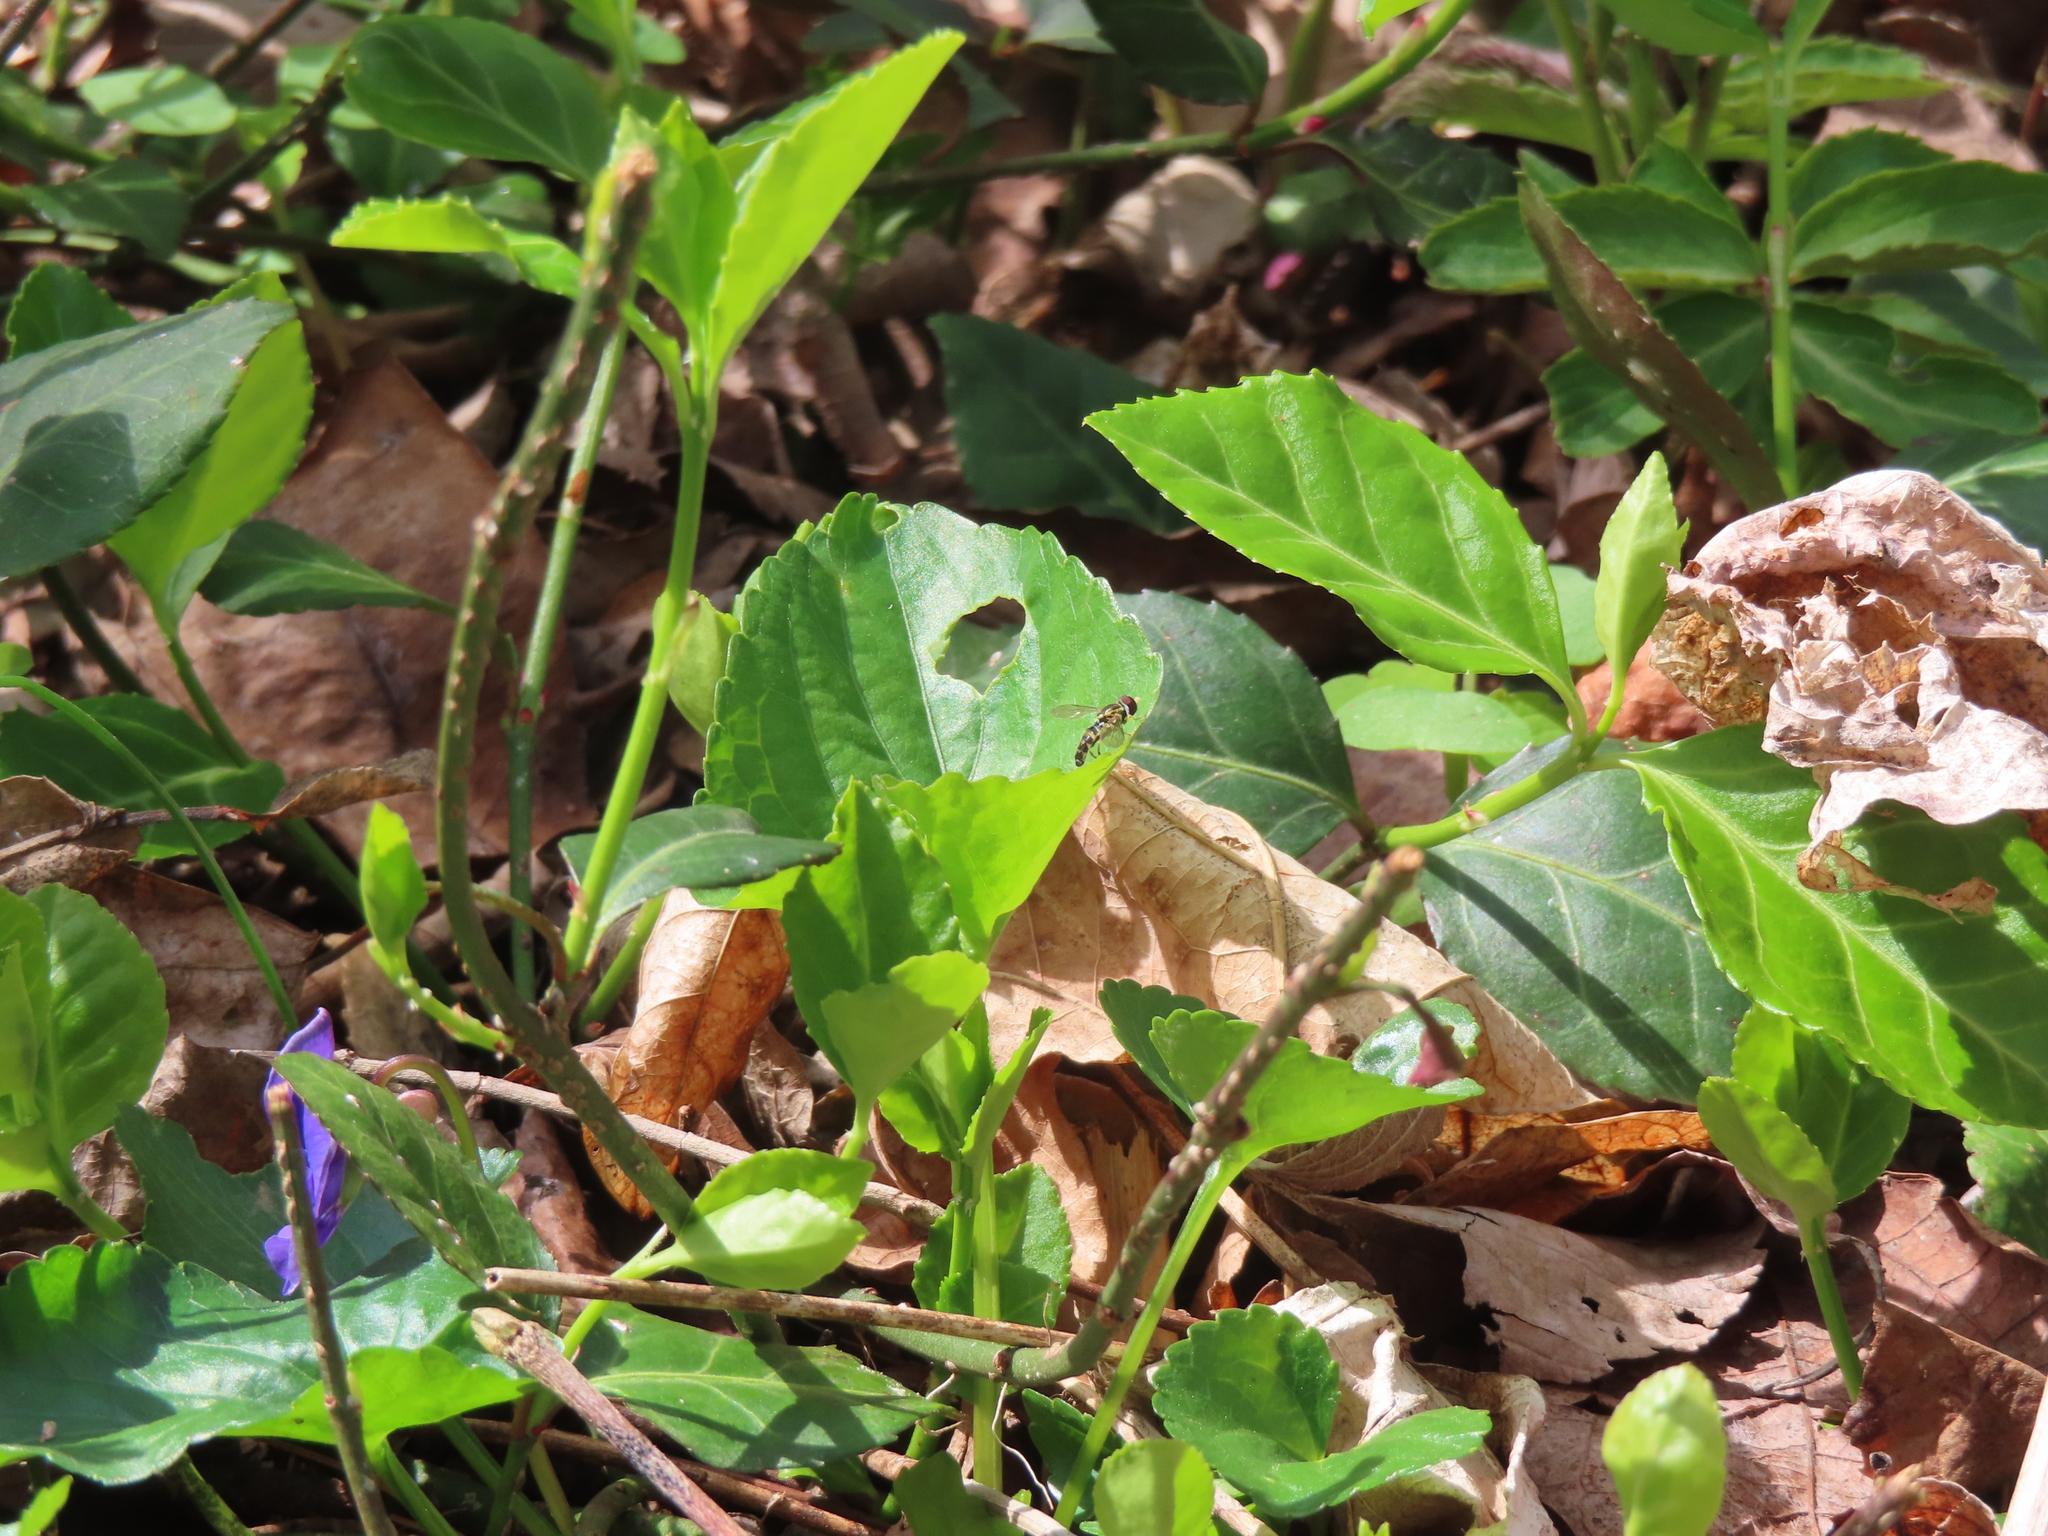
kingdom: Animalia
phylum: Arthropoda
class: Insecta
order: Diptera
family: Syrphidae
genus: Toxomerus
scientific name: Toxomerus geminatus
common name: Eastern calligrapher
